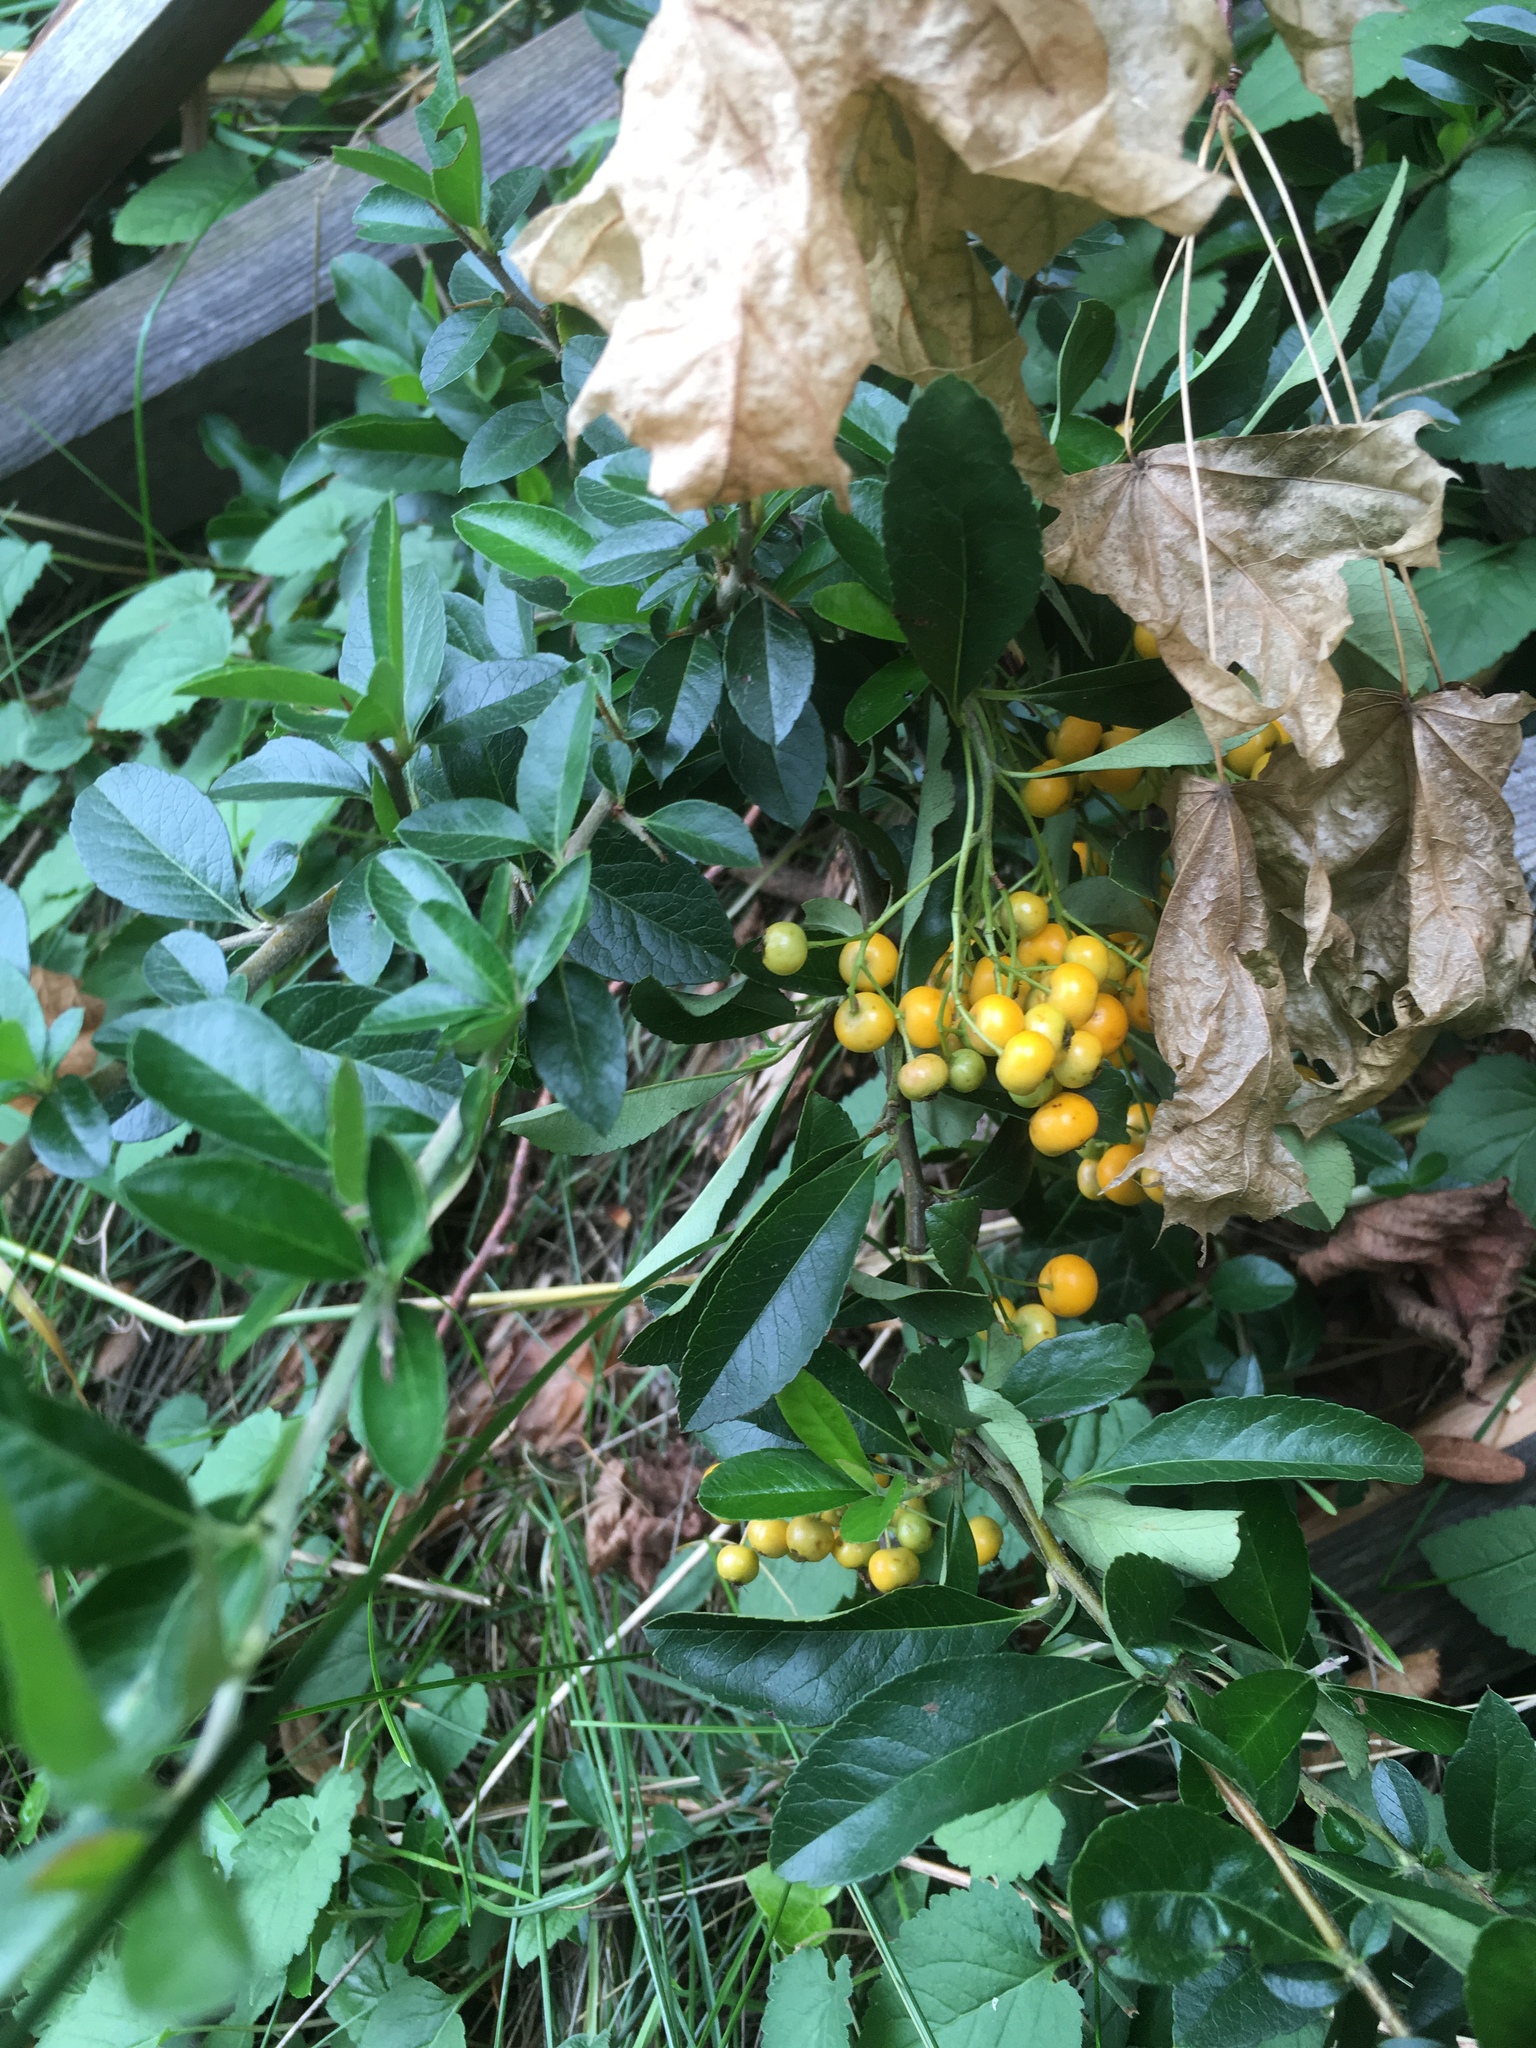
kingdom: Plantae
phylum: Tracheophyta
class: Magnoliopsida
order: Rosales
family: Rosaceae
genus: Pyracantha
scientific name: Pyracantha coccinea
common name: Firethorn
